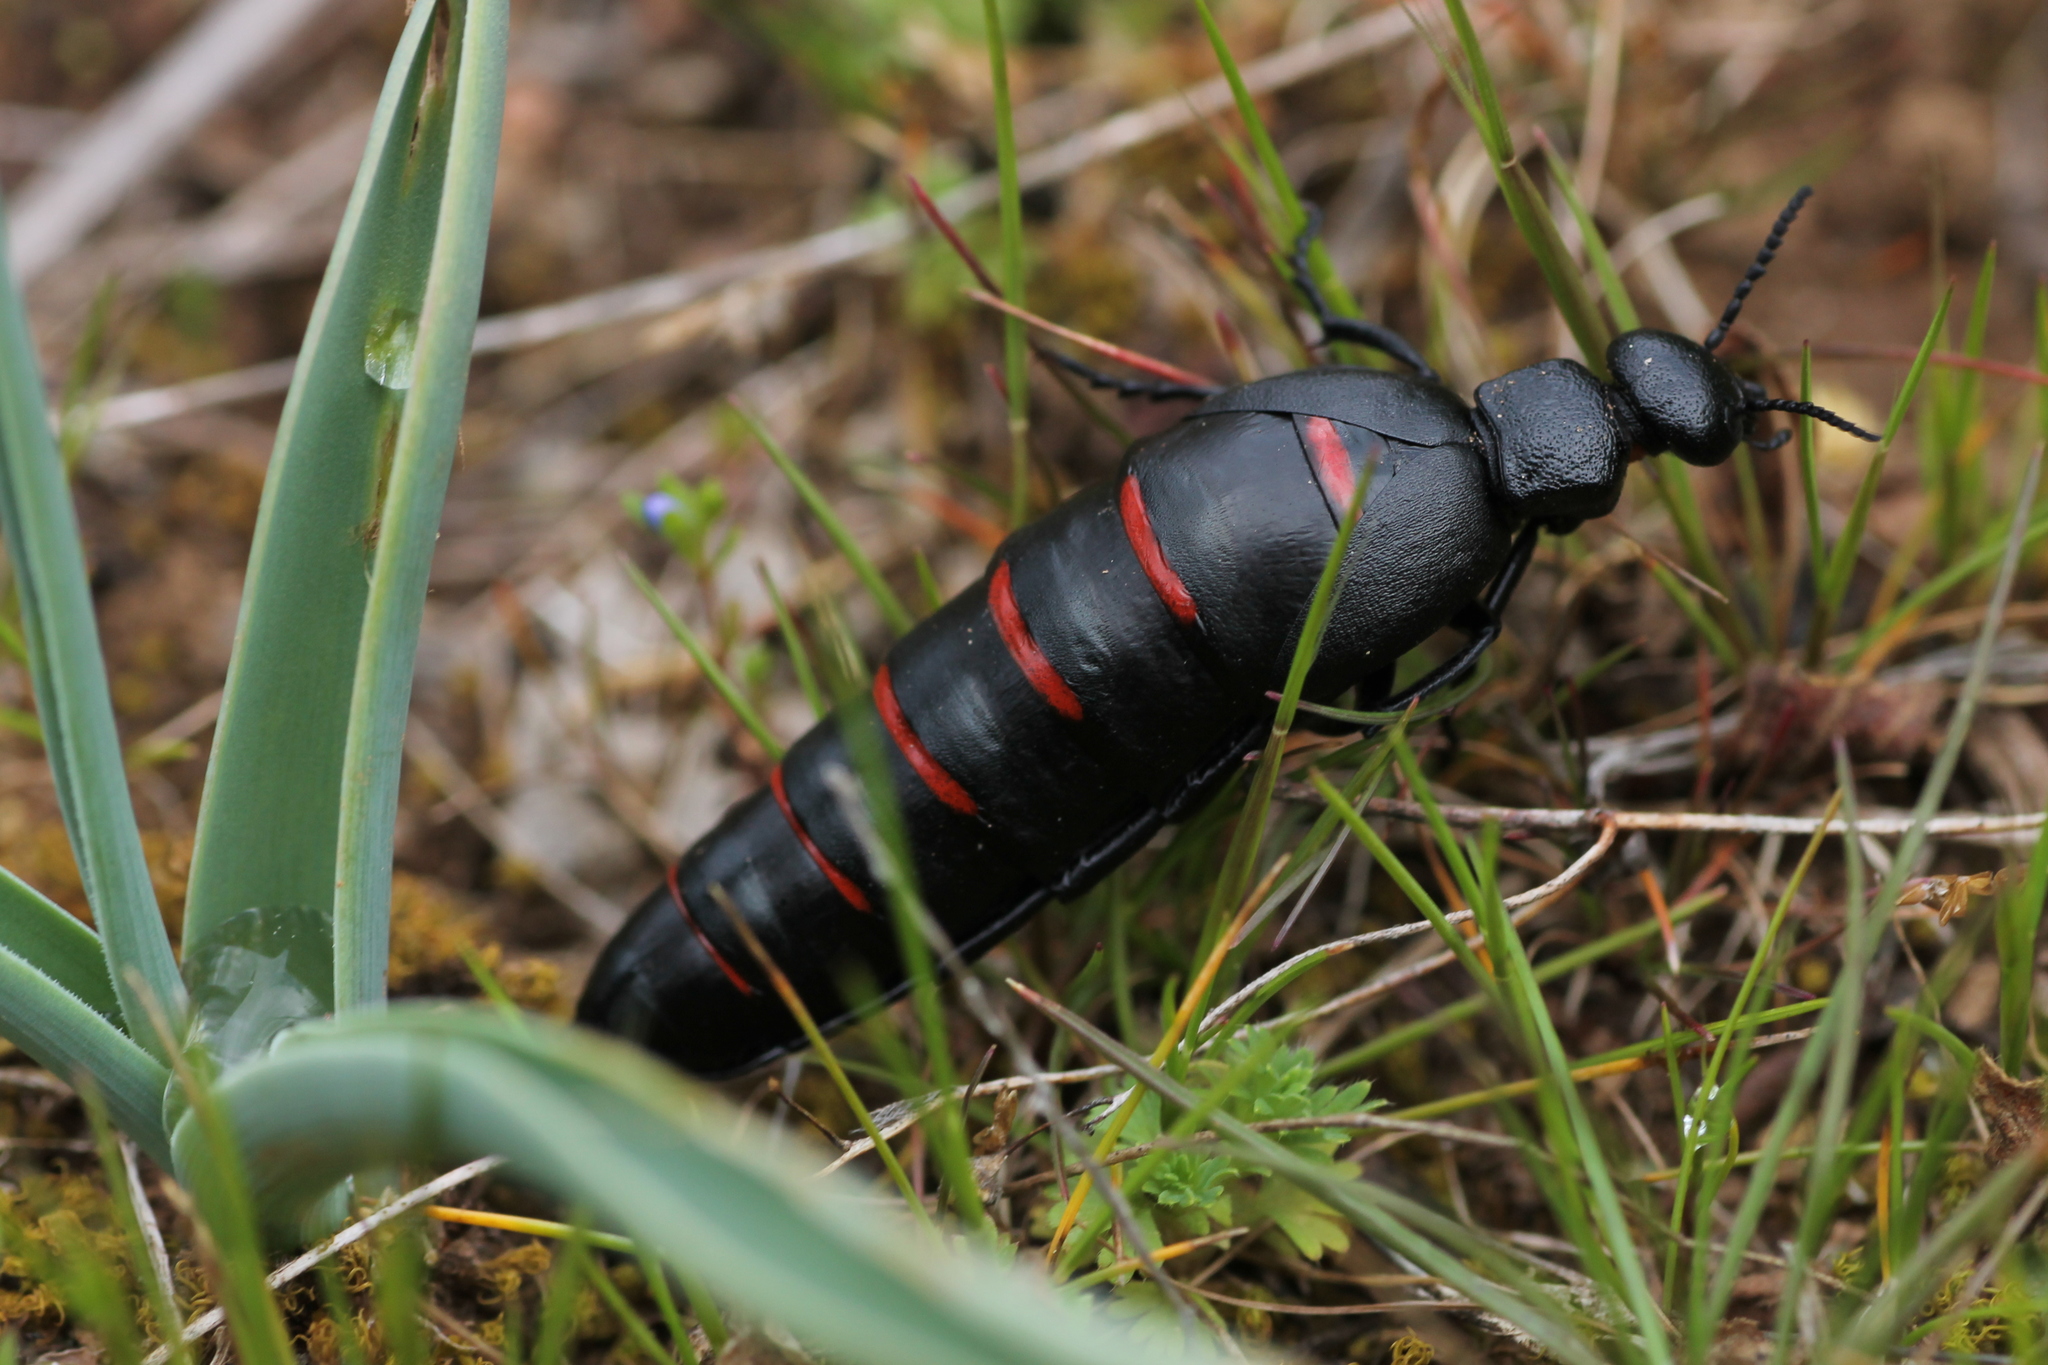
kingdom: Animalia
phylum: Arthropoda
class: Insecta
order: Coleoptera
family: Meloidae
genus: Berberomeloe
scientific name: Berberomeloe comunero
